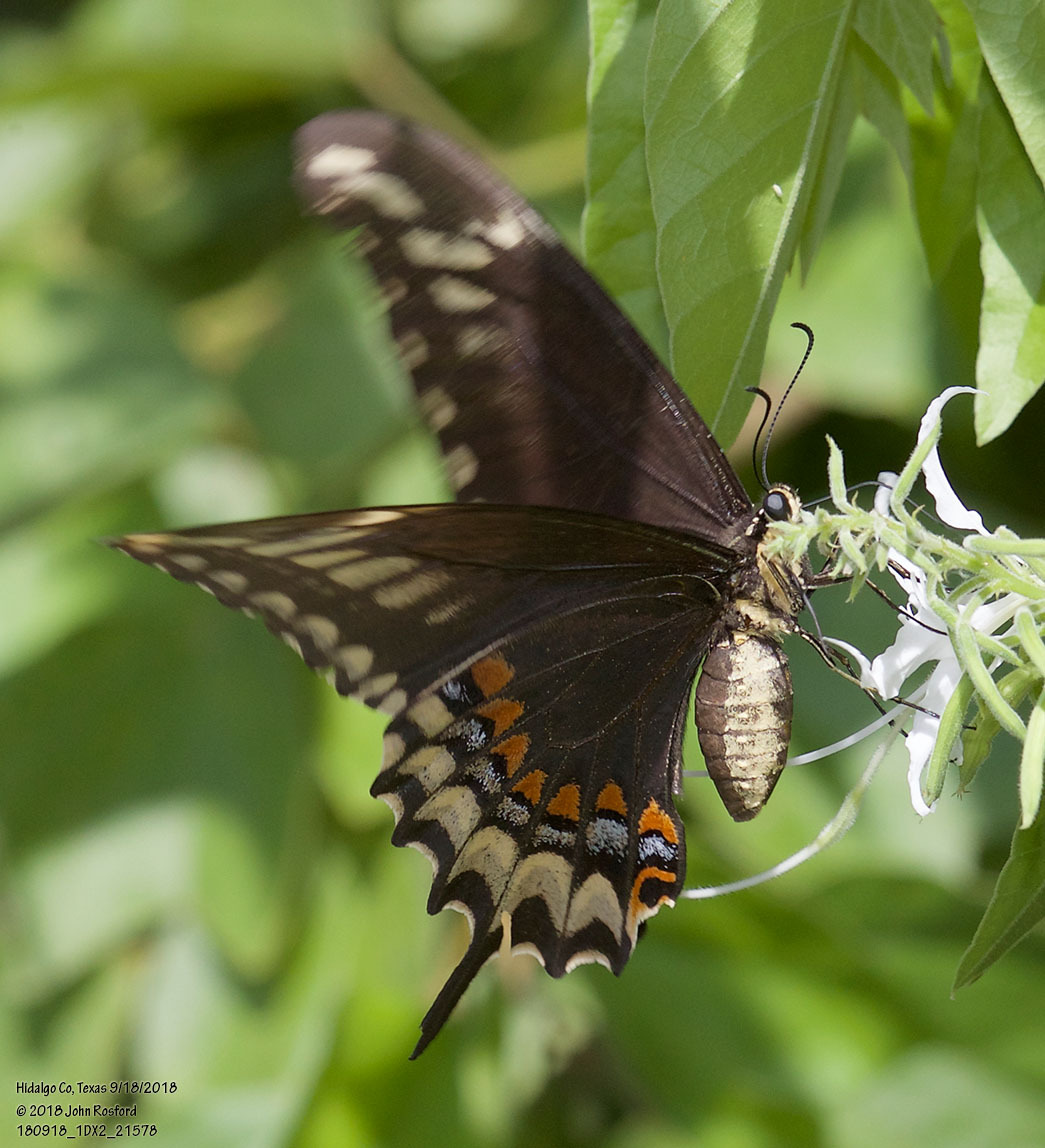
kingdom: Animalia
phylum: Arthropoda
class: Insecta
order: Lepidoptera
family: Papilionidae
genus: Papilio
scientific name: Papilio ornythion
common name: Ornythion swallowtail
